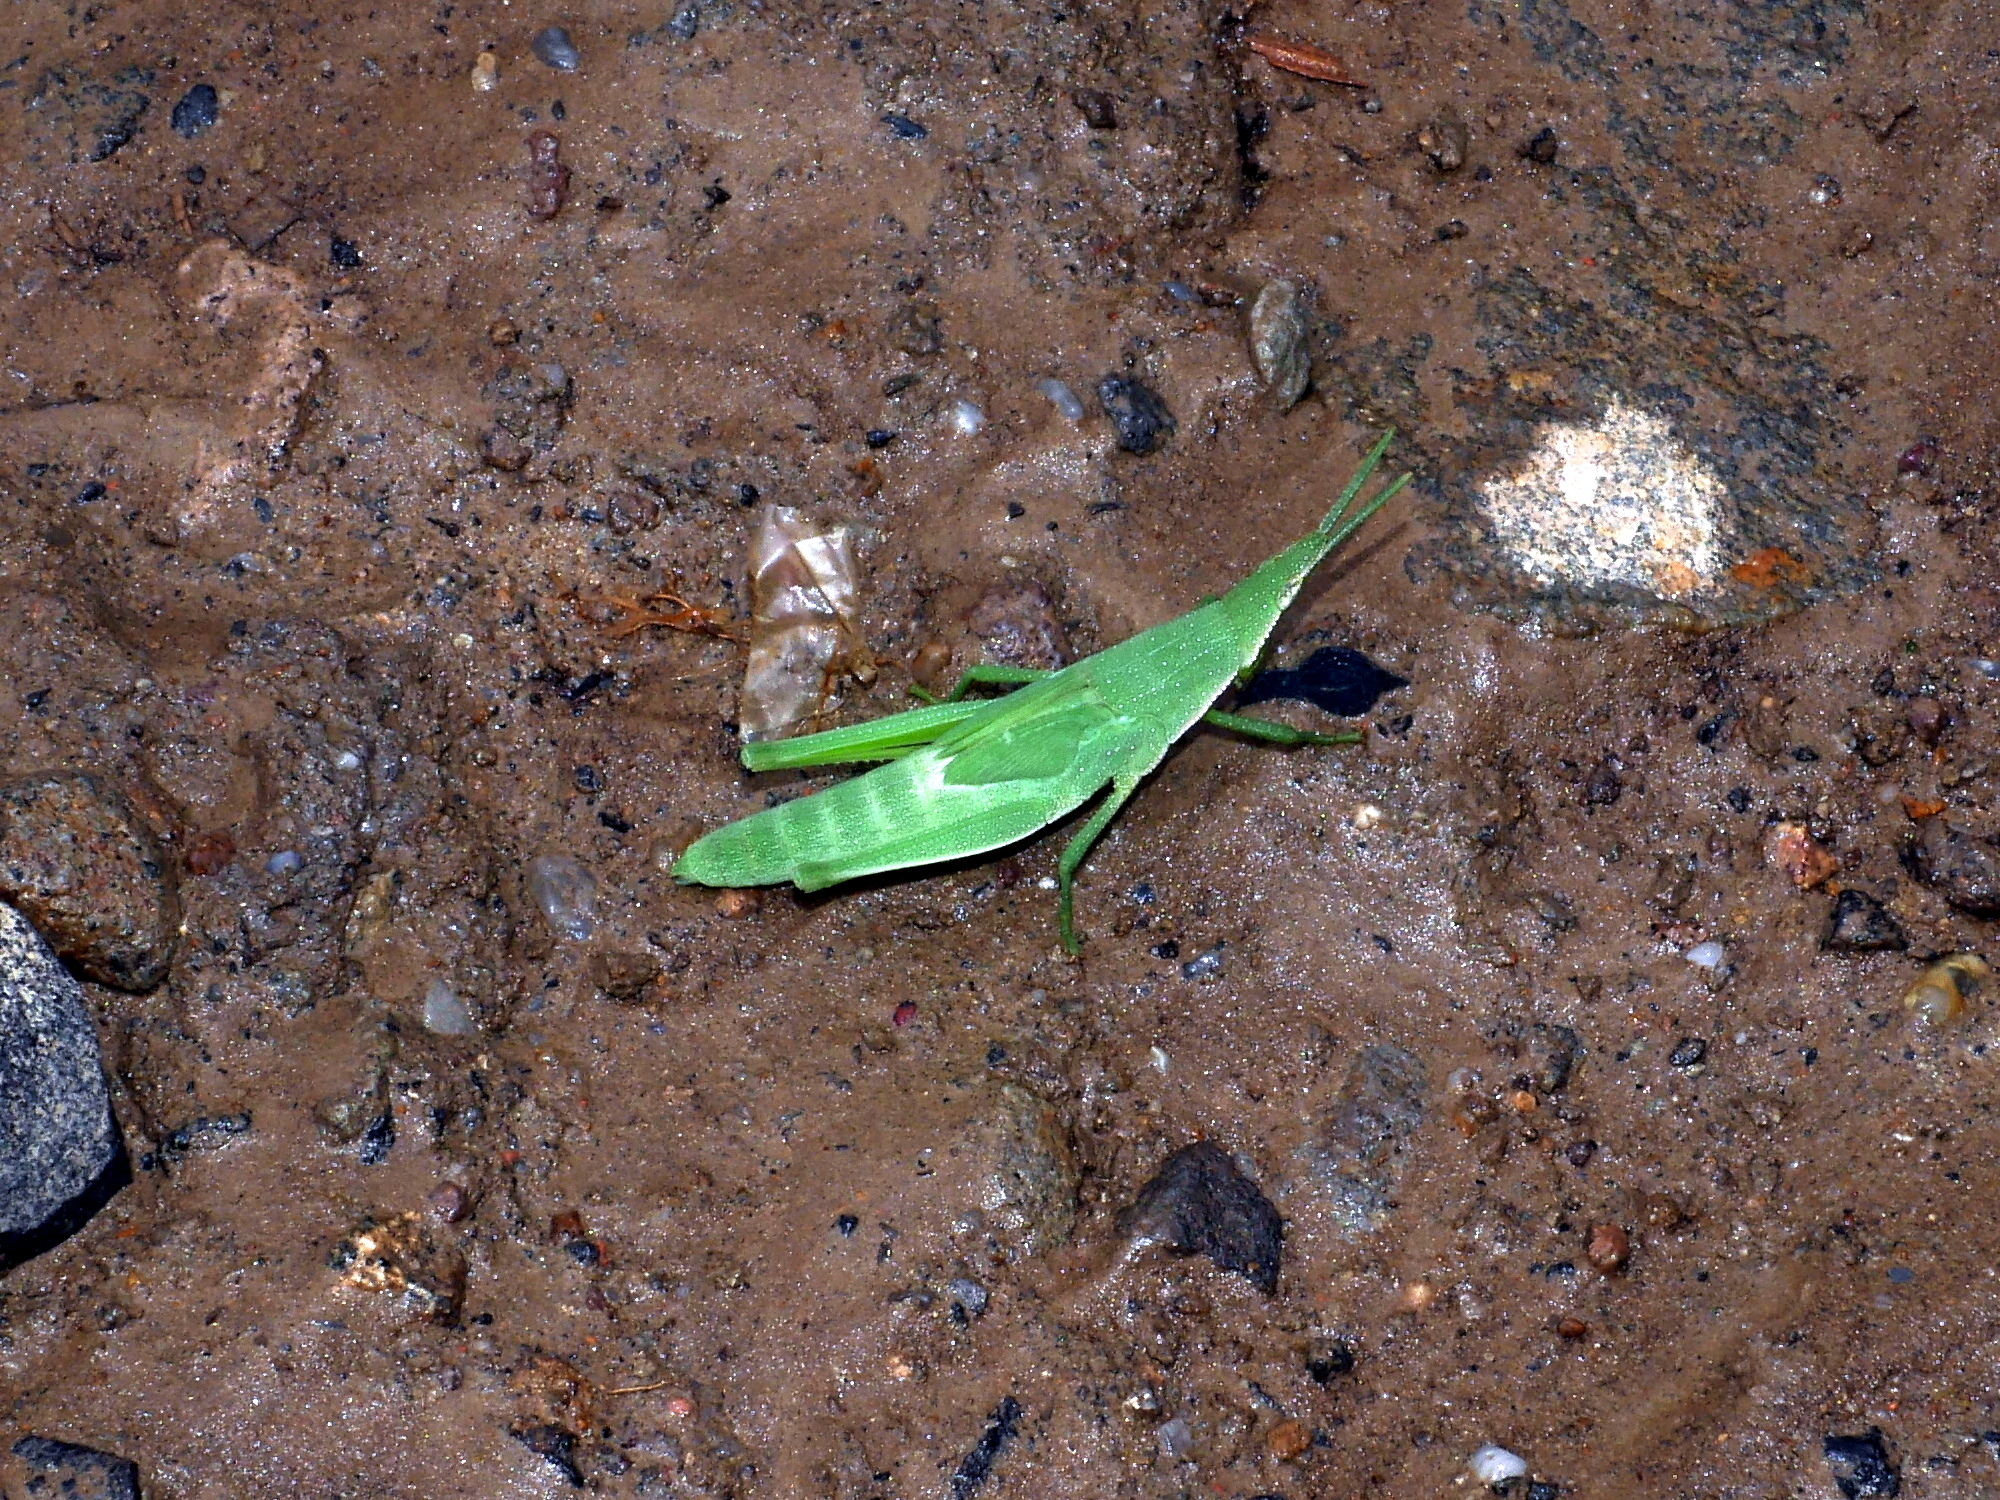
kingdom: Animalia
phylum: Arthropoda
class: Insecta
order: Orthoptera
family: Pyrgomorphidae
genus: Atractomorpha
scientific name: Atractomorpha lata
